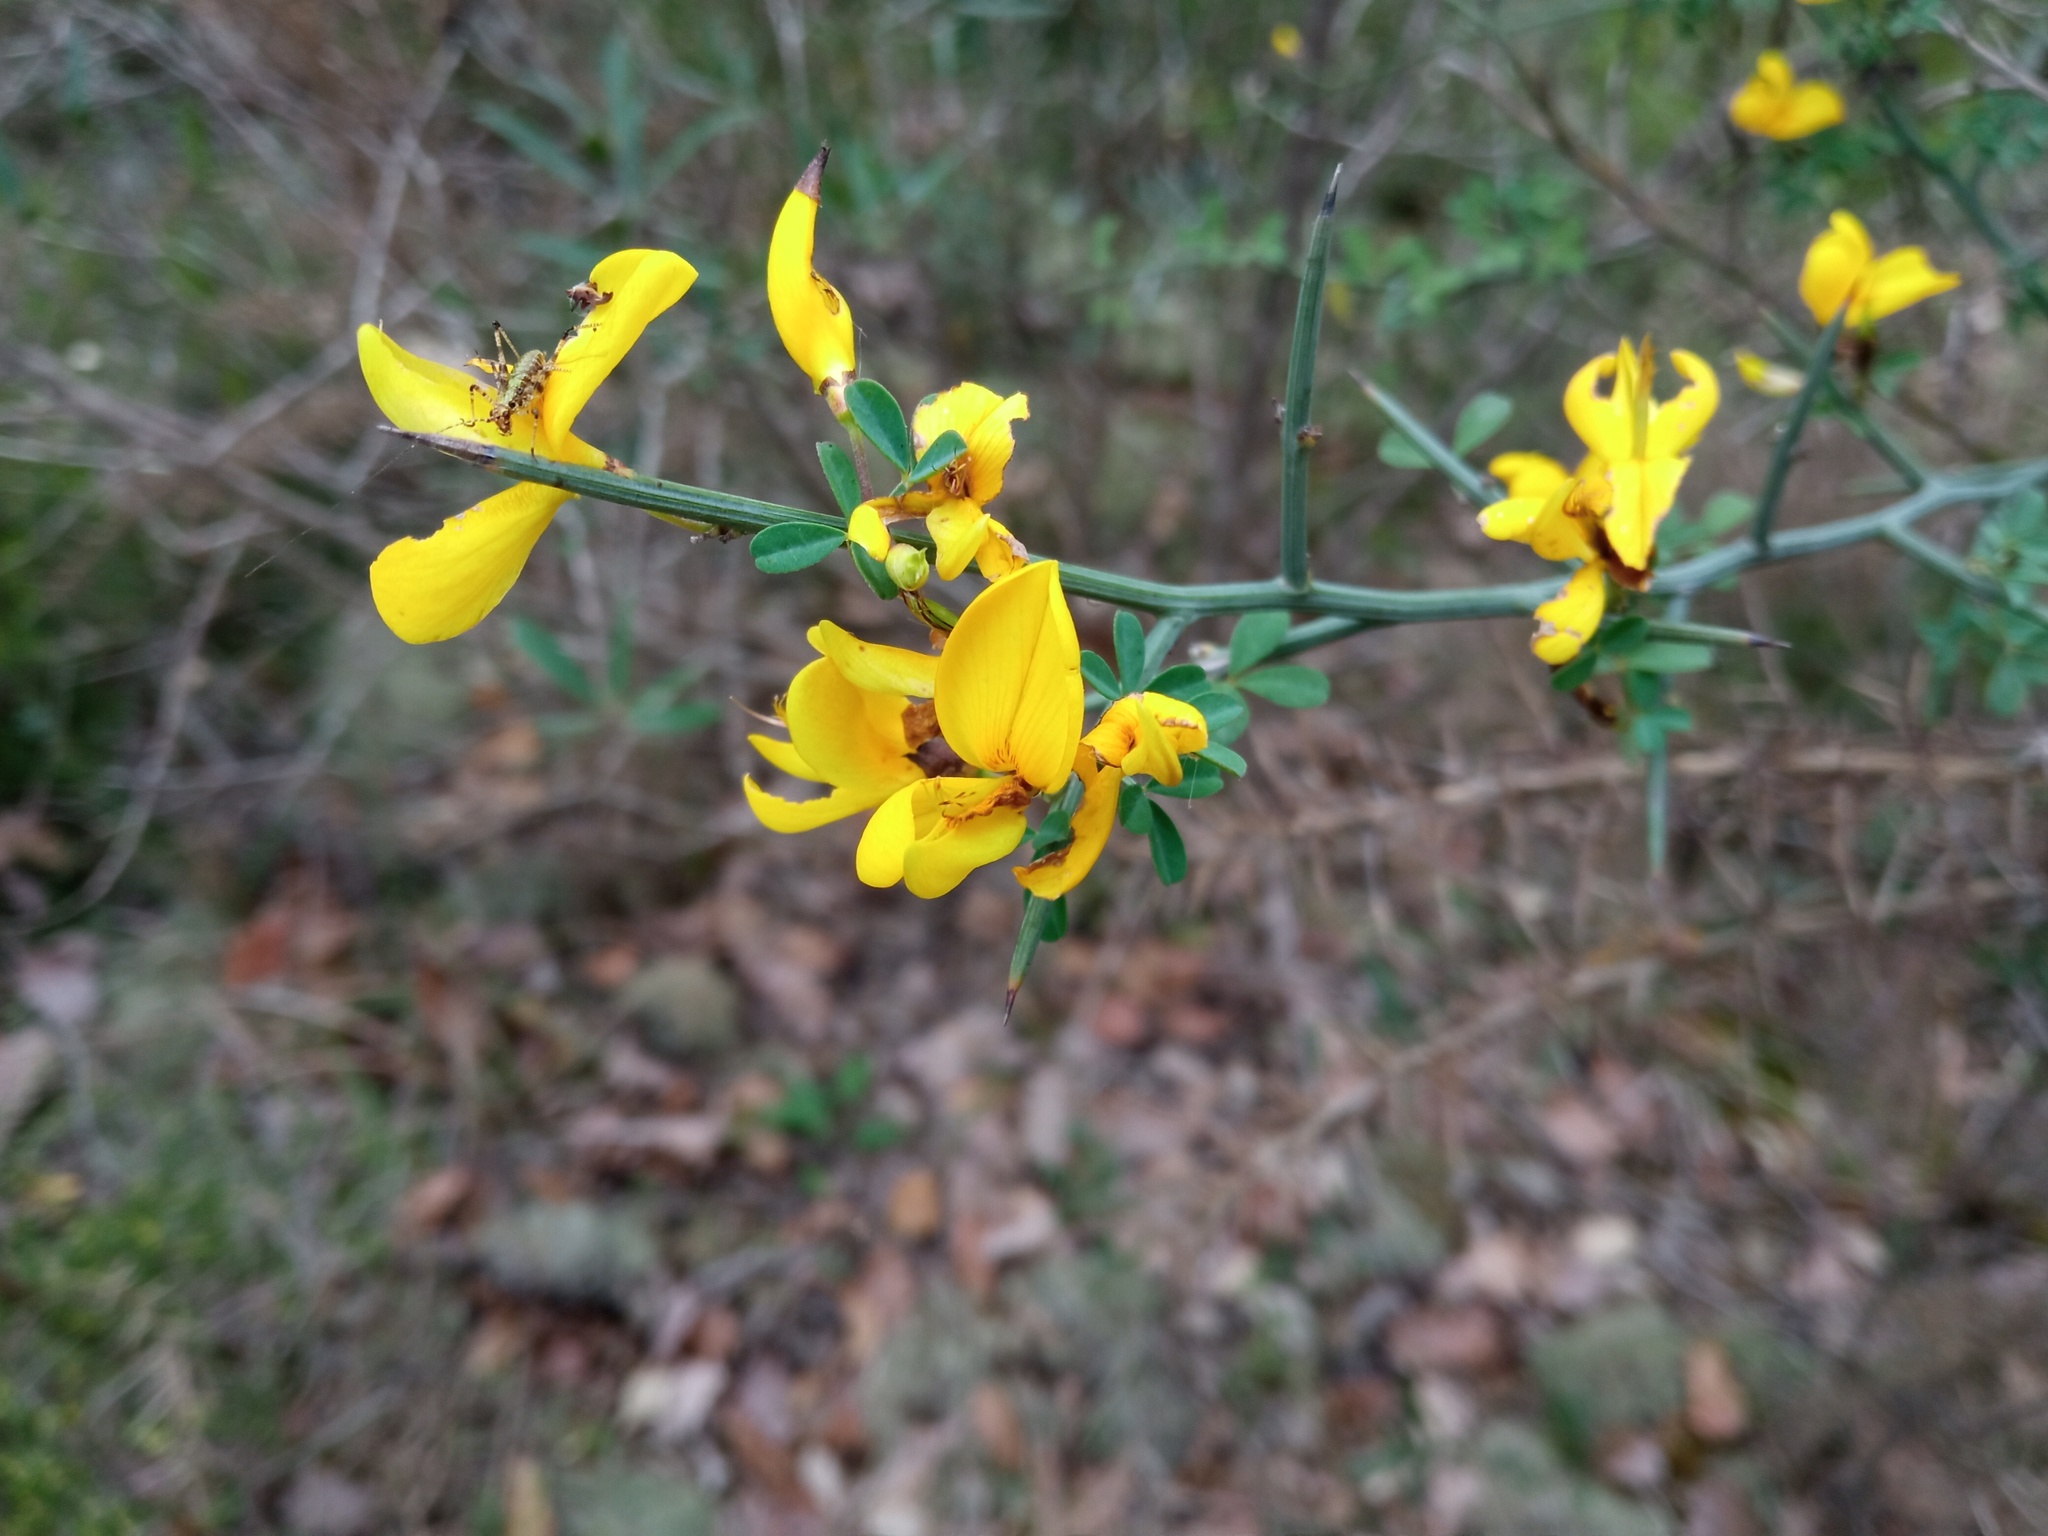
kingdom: Plantae
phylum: Tracheophyta
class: Magnoliopsida
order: Fabales
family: Fabaceae
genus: Calicotome
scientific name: Calicotome spinosa
